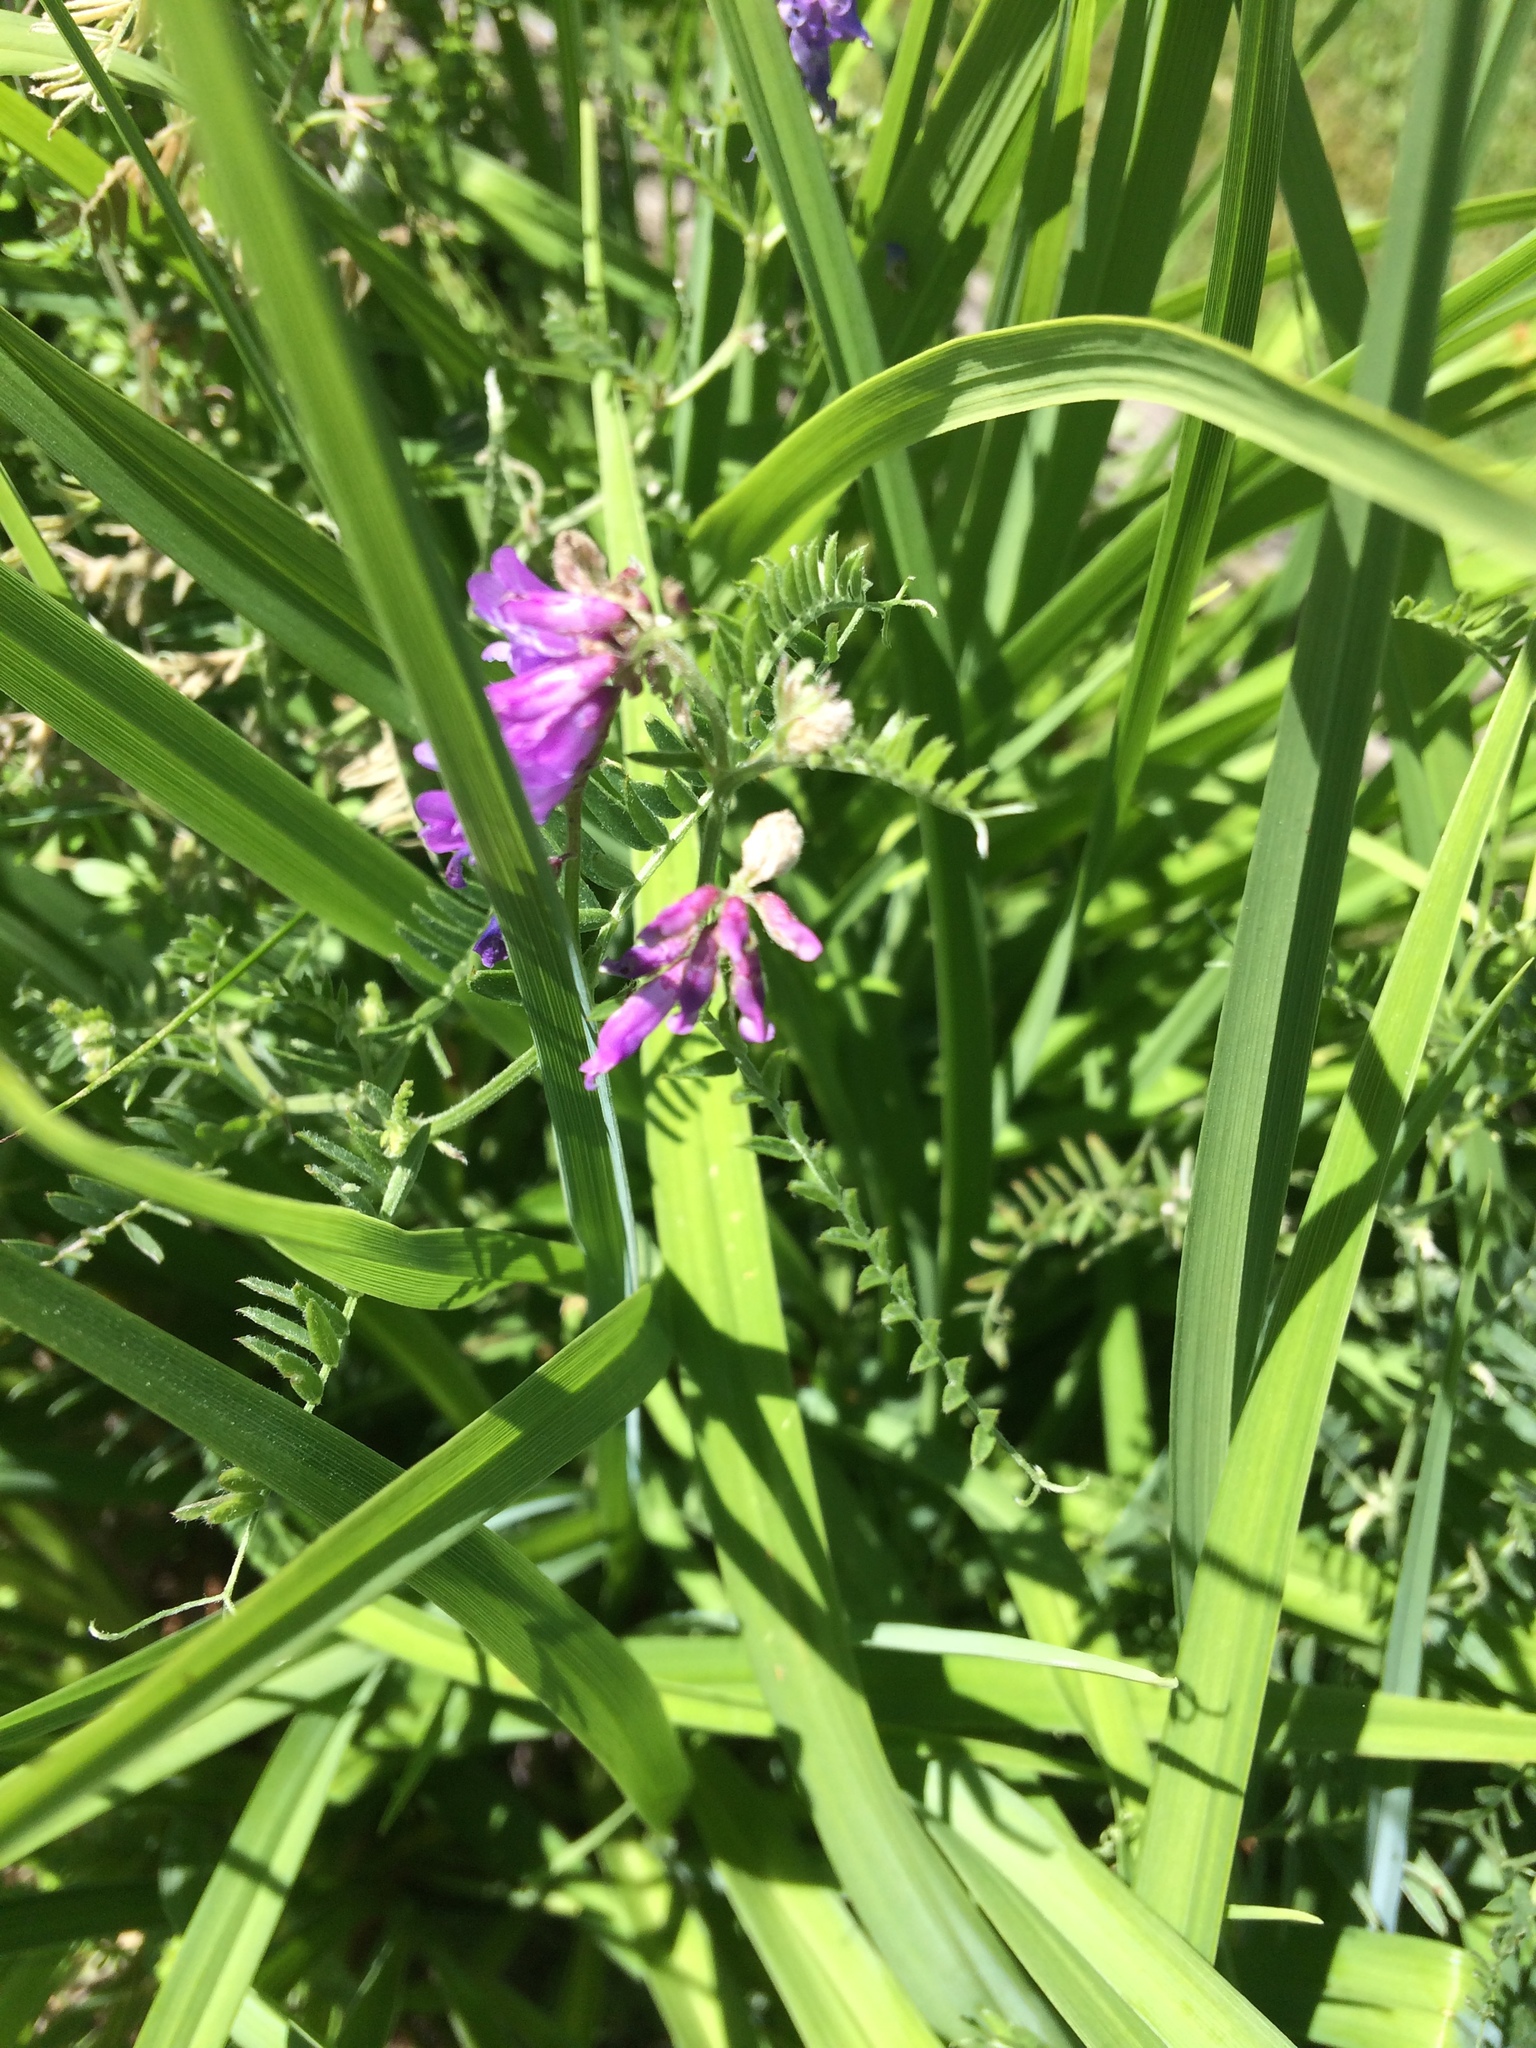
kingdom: Plantae
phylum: Tracheophyta
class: Magnoliopsida
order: Fabales
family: Fabaceae
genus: Vicia
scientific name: Vicia cracca
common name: Bird vetch
